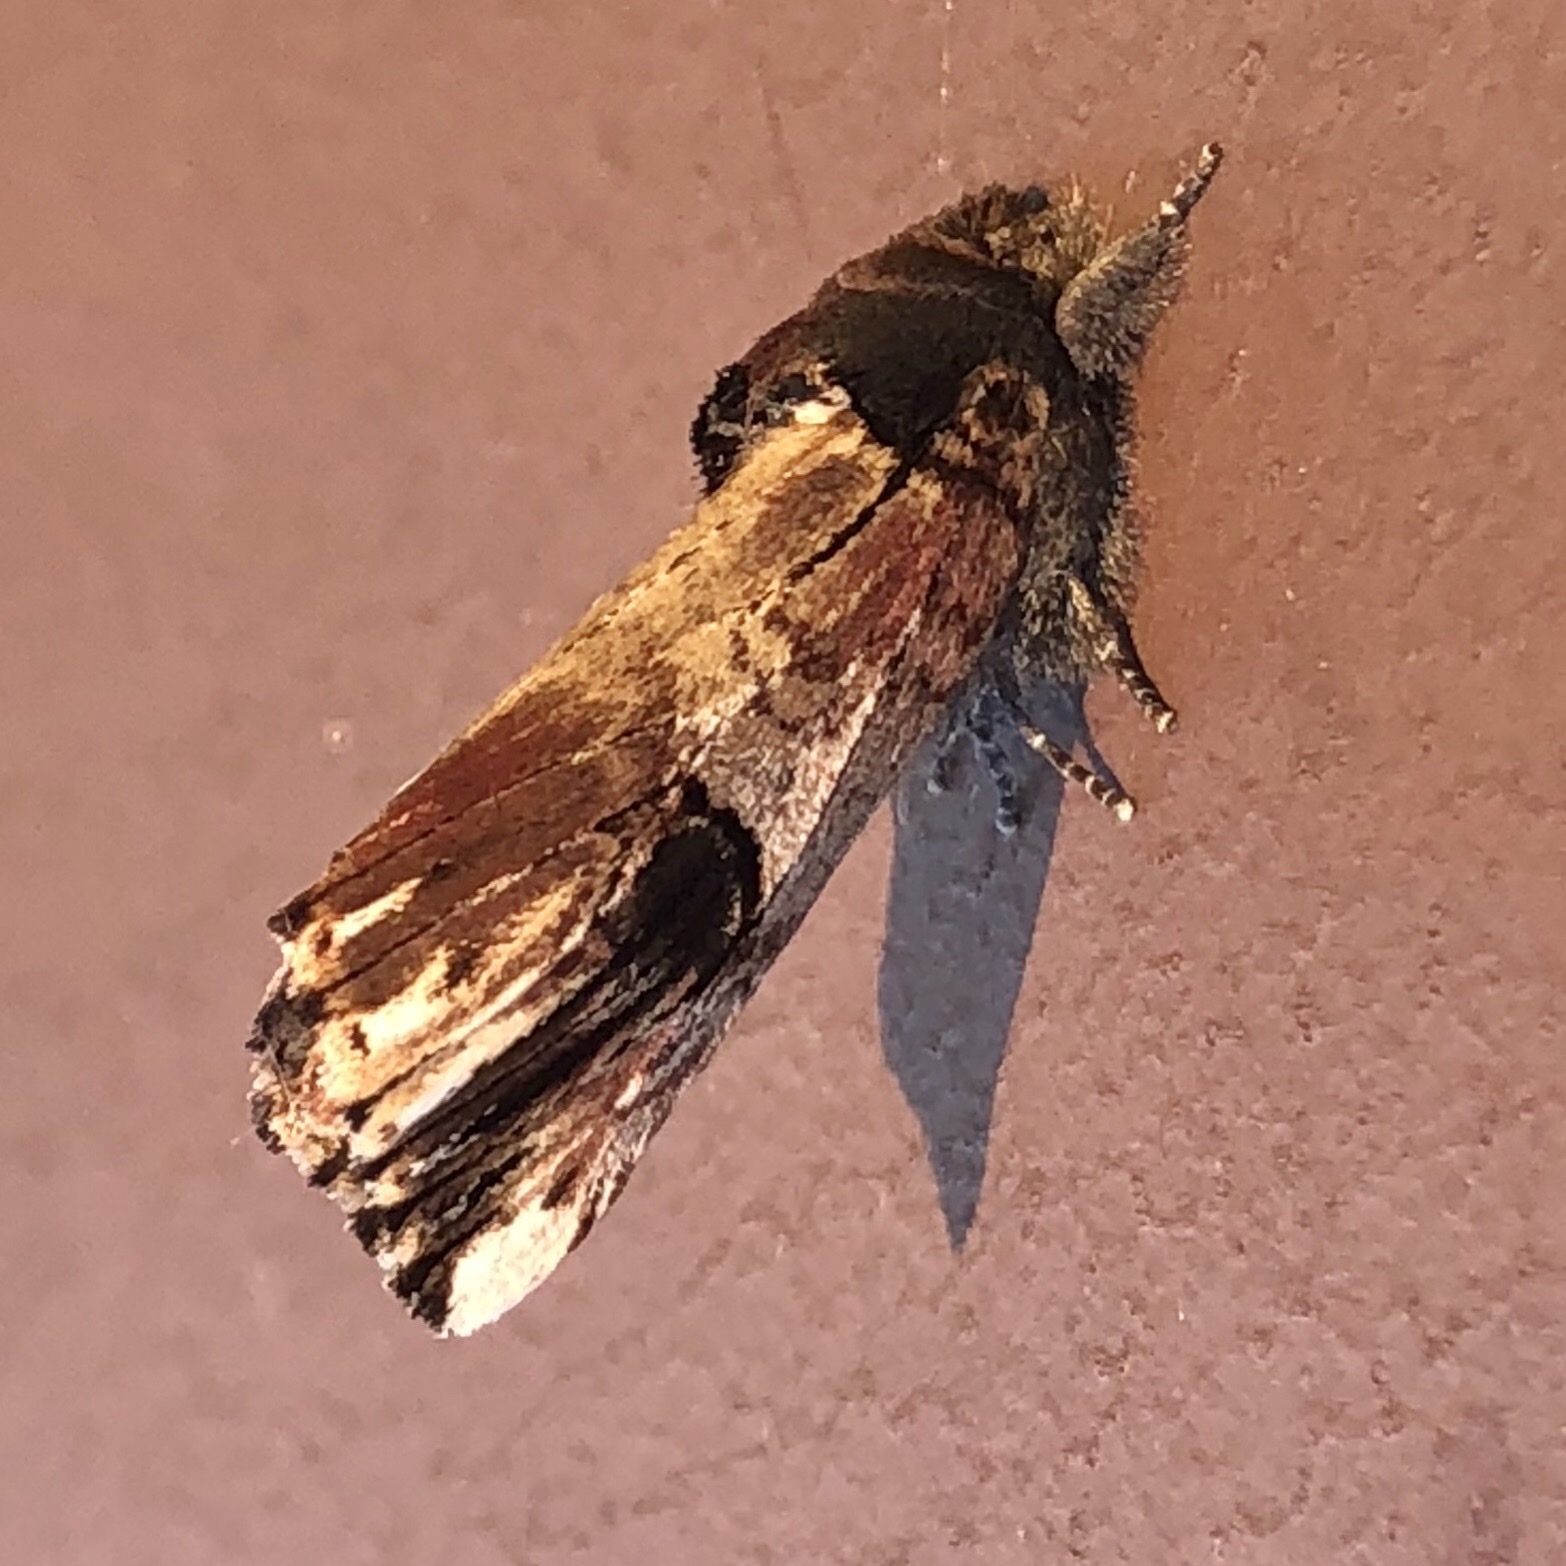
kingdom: Animalia
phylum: Arthropoda
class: Insecta
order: Lepidoptera
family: Notodontidae
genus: Schizura
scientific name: Schizura badia
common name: Chestnut schizura
